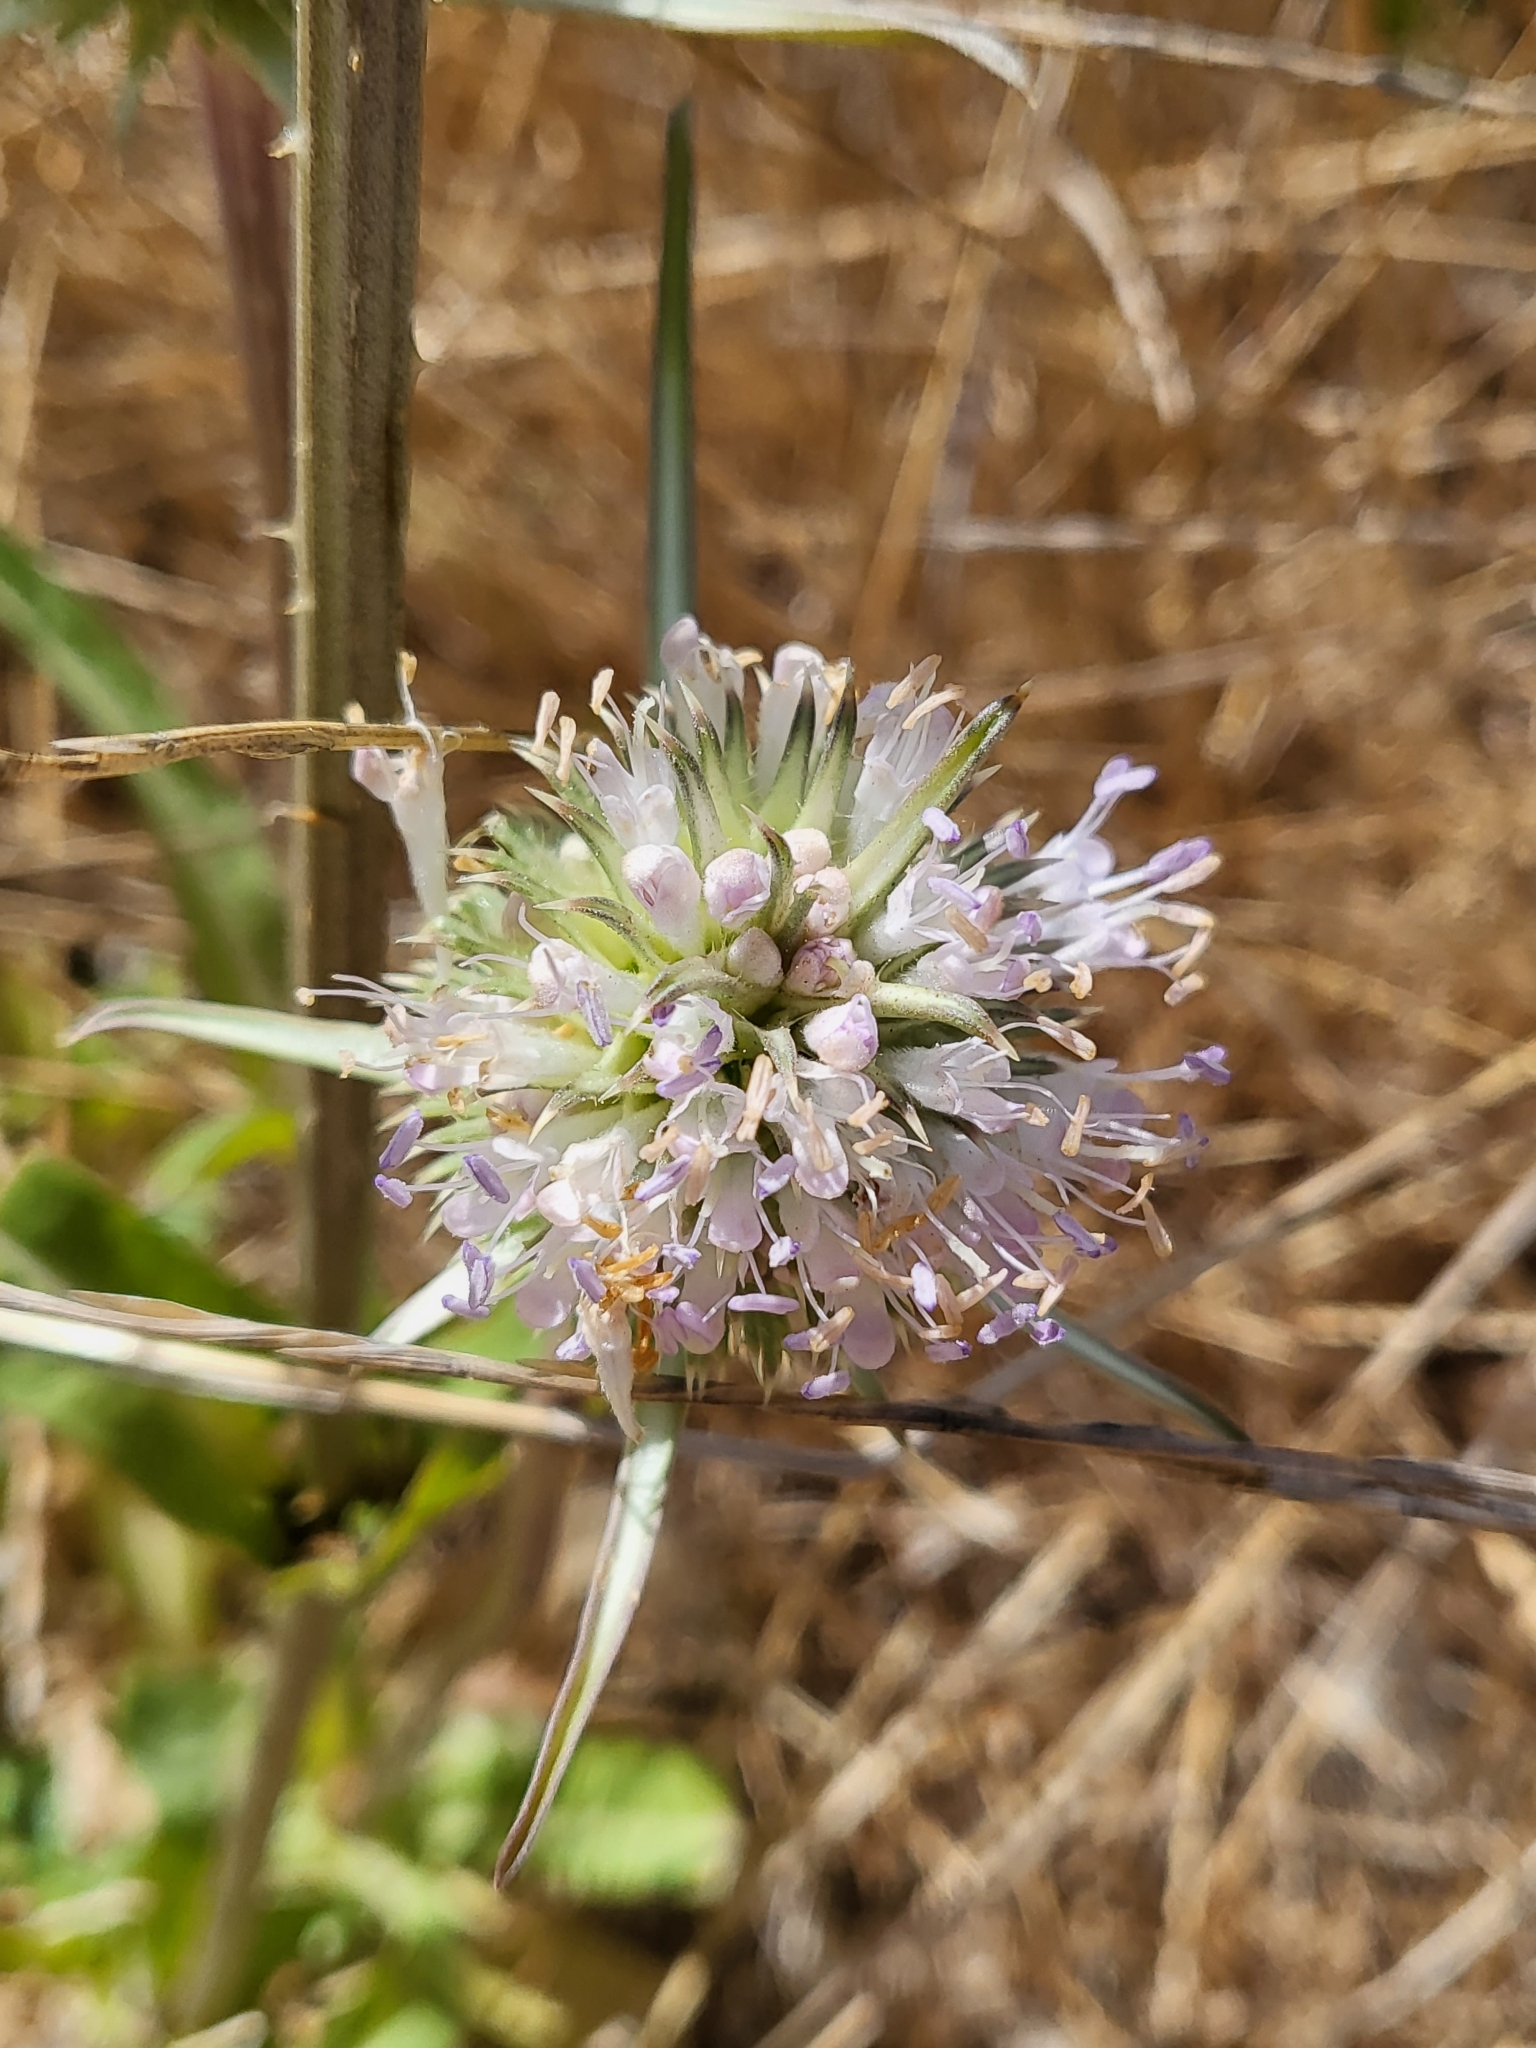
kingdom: Plantae
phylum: Tracheophyta
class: Magnoliopsida
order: Dipsacales
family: Caprifoliaceae
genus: Dipsacus
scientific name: Dipsacus sativus
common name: Fuller's teasel
